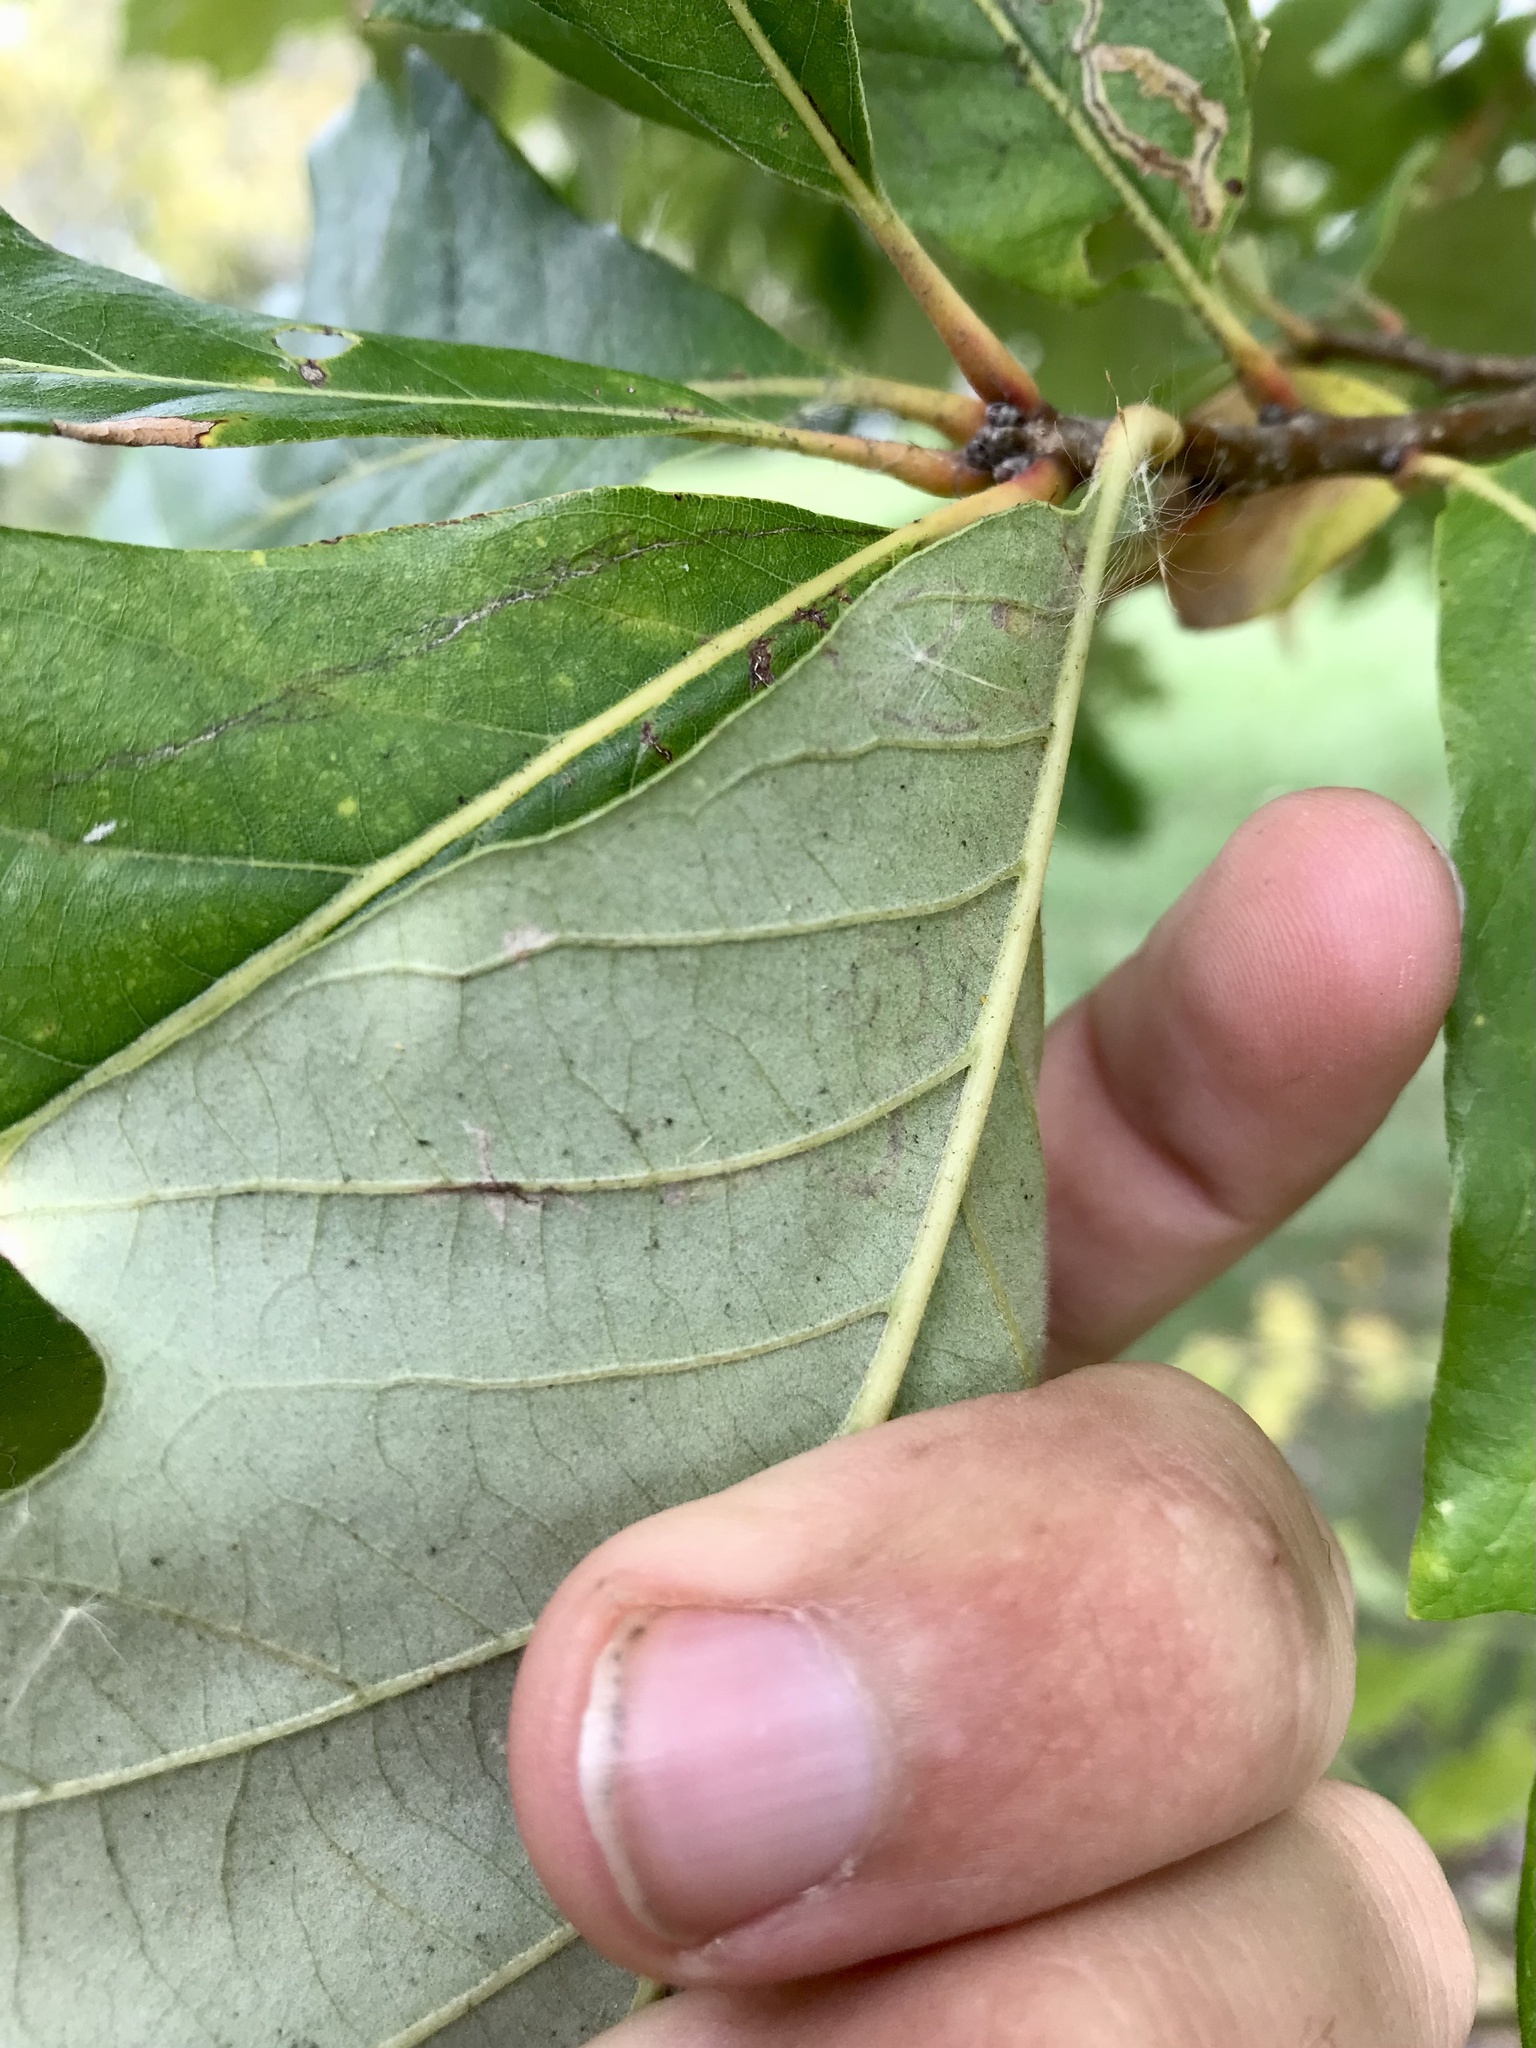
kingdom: Animalia
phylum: Arthropoda
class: Insecta
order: Lepidoptera
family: Nepticulidae
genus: Stigmella
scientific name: Stigmella nigriverticella
